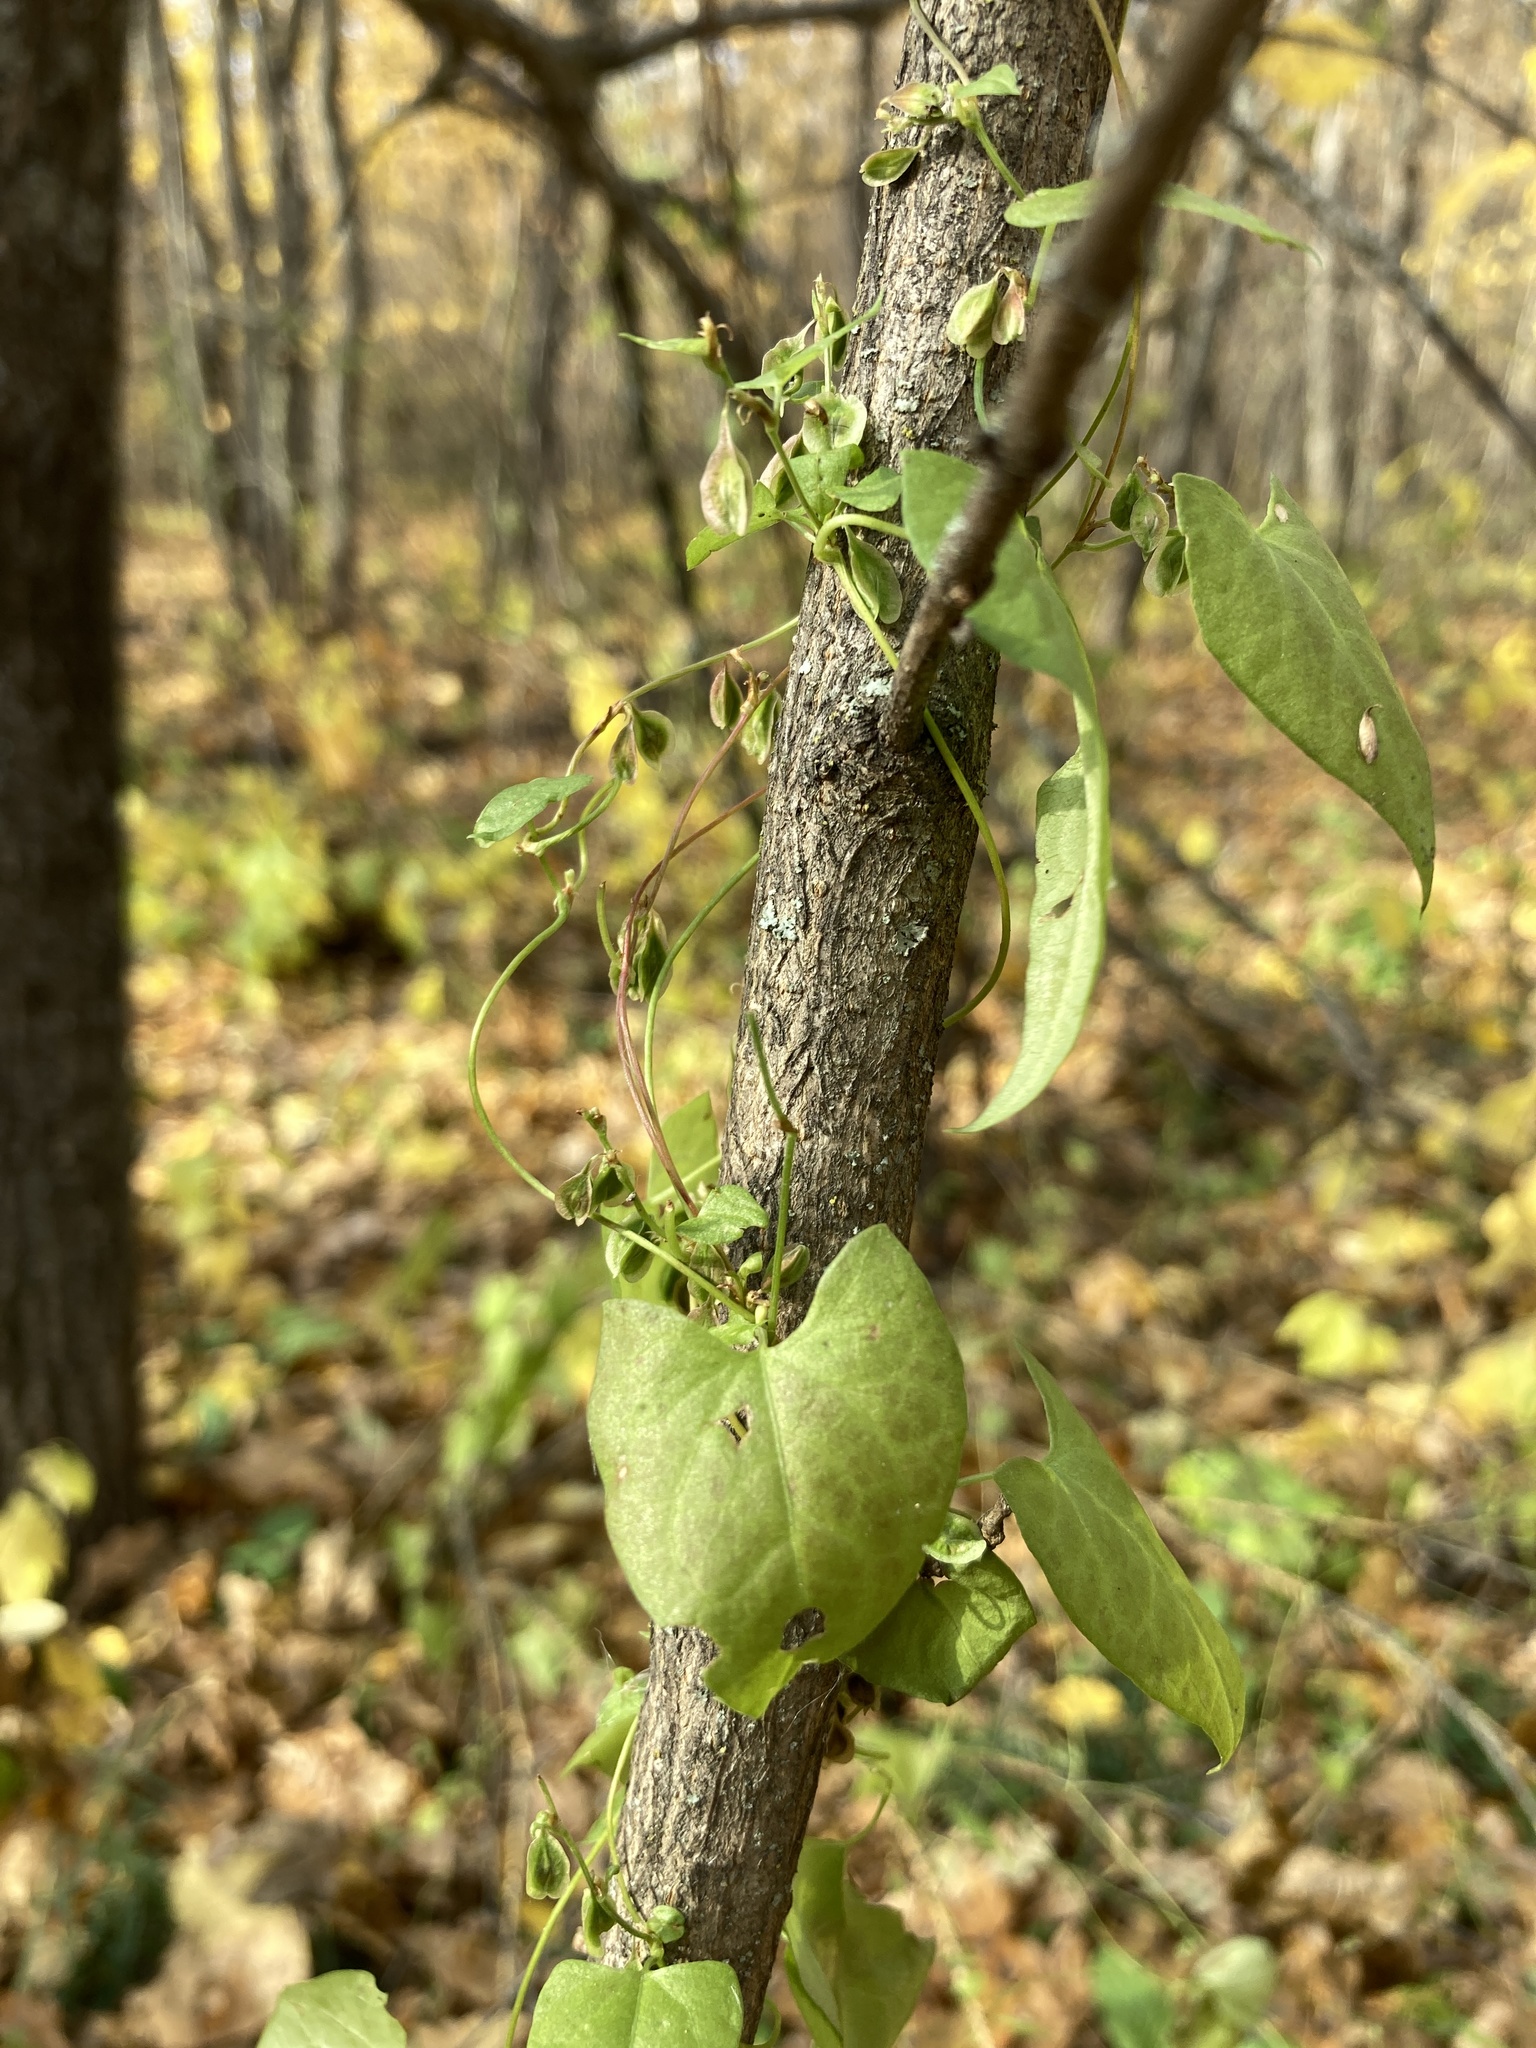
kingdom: Plantae
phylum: Tracheophyta
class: Magnoliopsida
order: Caryophyllales
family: Polygonaceae
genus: Fallopia
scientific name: Fallopia dumetorum
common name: Copse-bindweed
